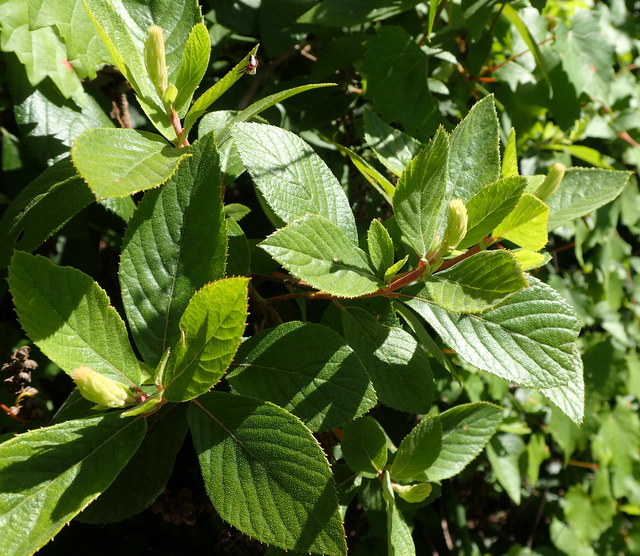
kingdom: Plantae
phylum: Tracheophyta
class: Magnoliopsida
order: Ericales
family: Clethraceae
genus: Clethra
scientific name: Clethra alnifolia
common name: Sweet pepperbush
